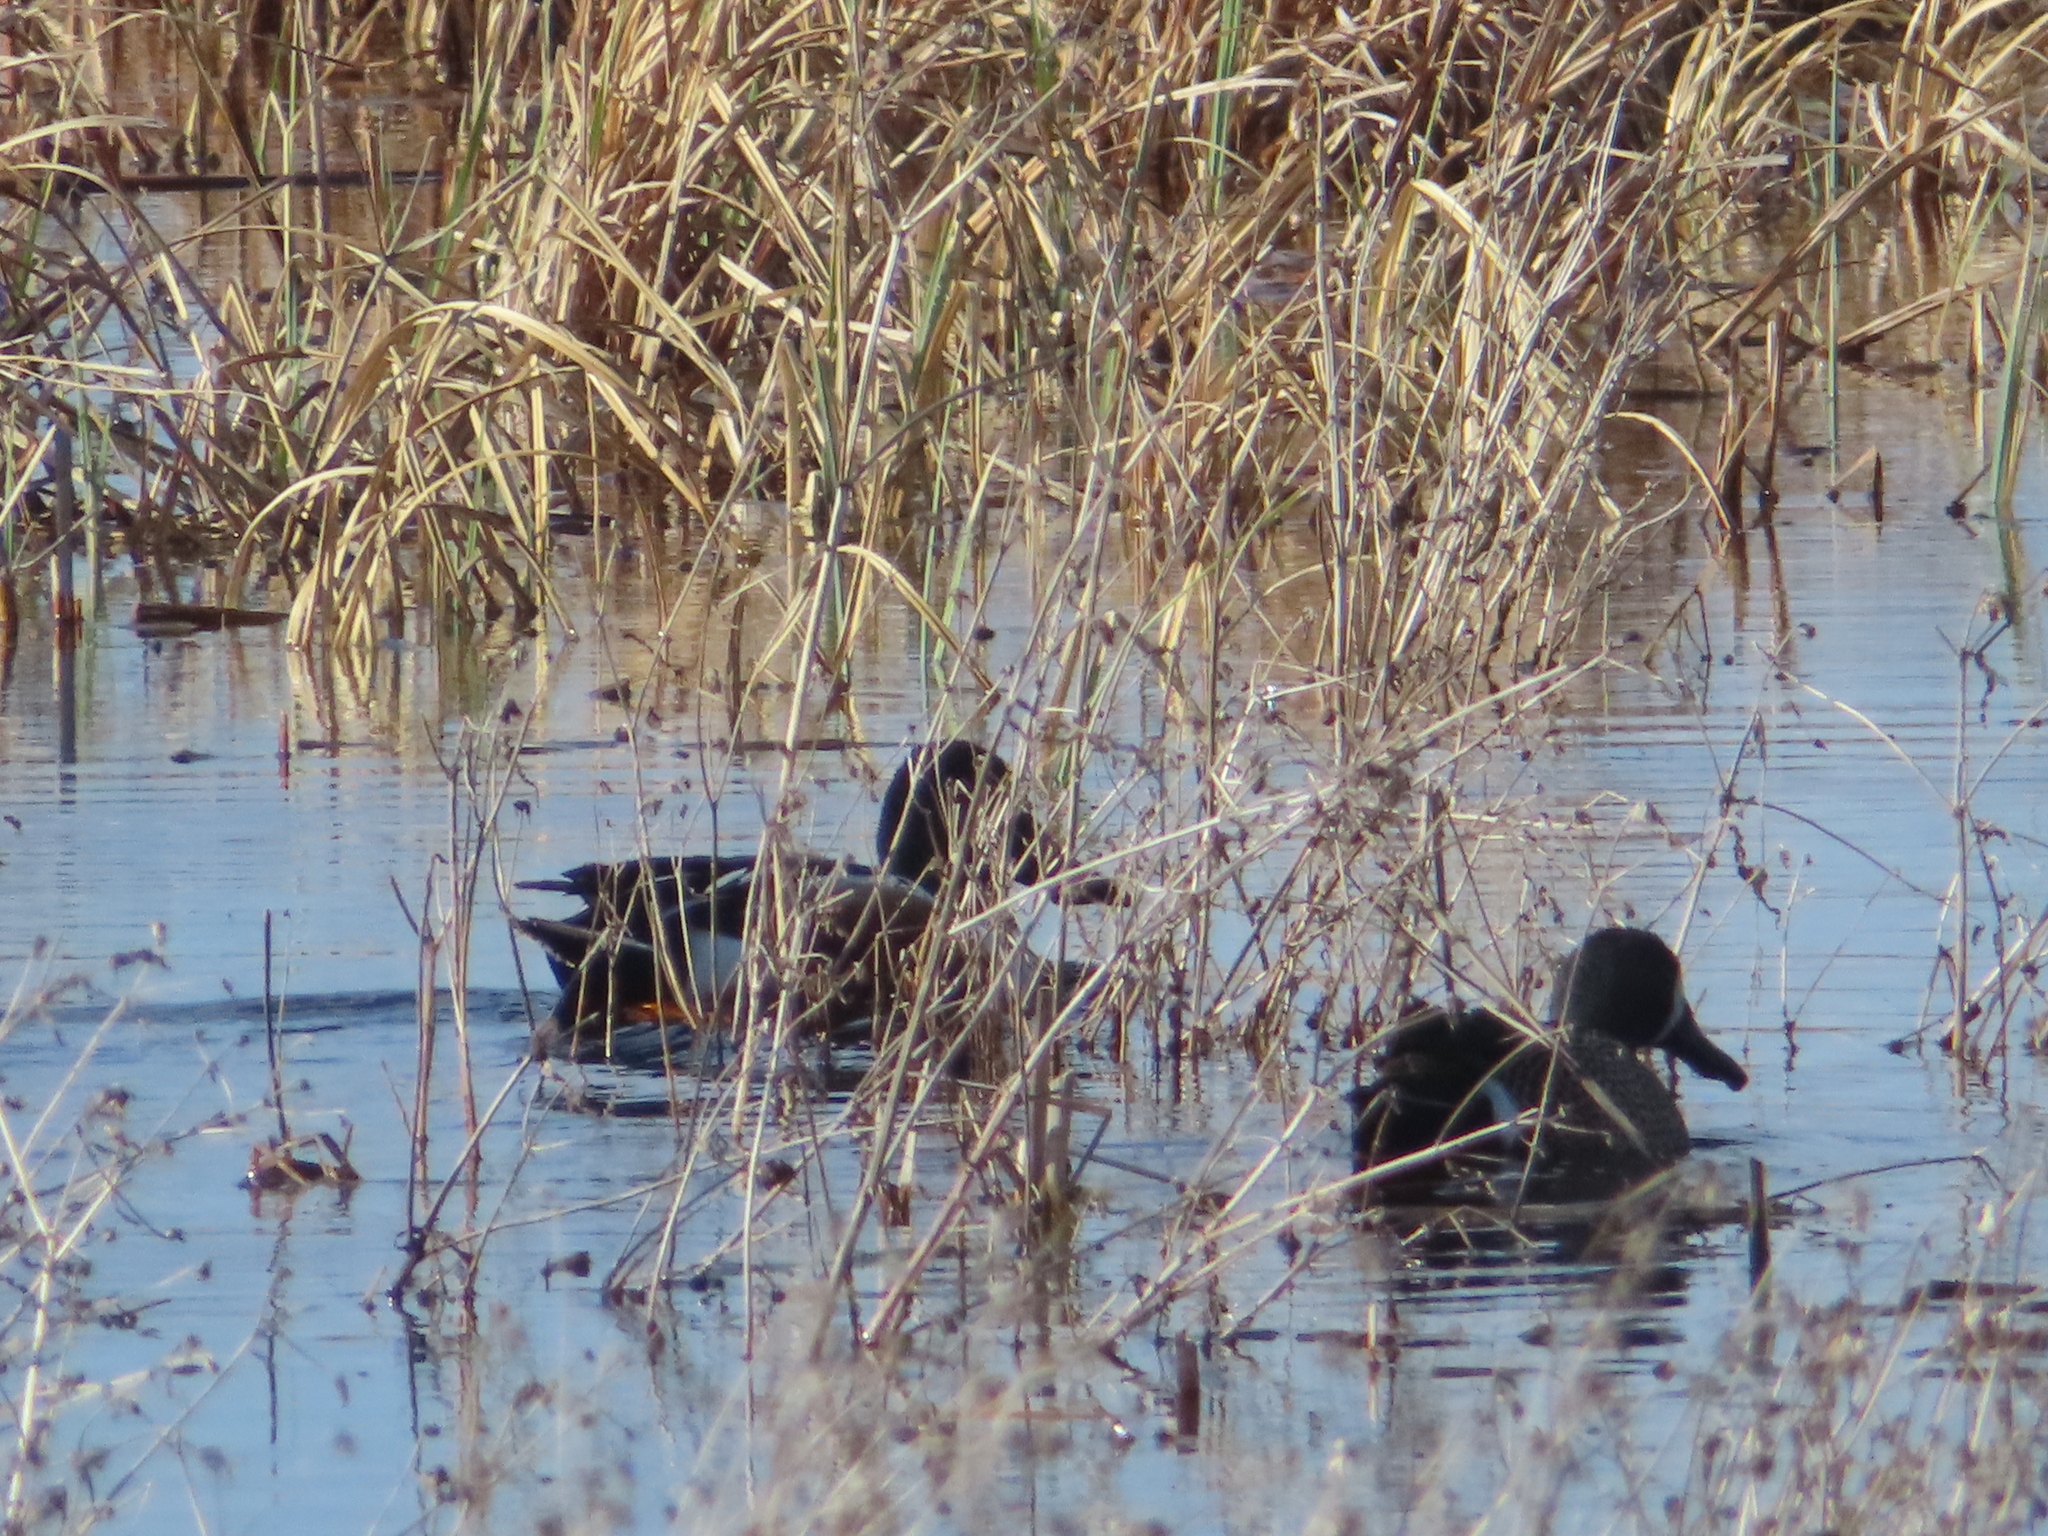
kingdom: Animalia
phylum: Chordata
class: Aves
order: Anseriformes
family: Anatidae
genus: Spatula
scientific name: Spatula discors
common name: Blue-winged teal
